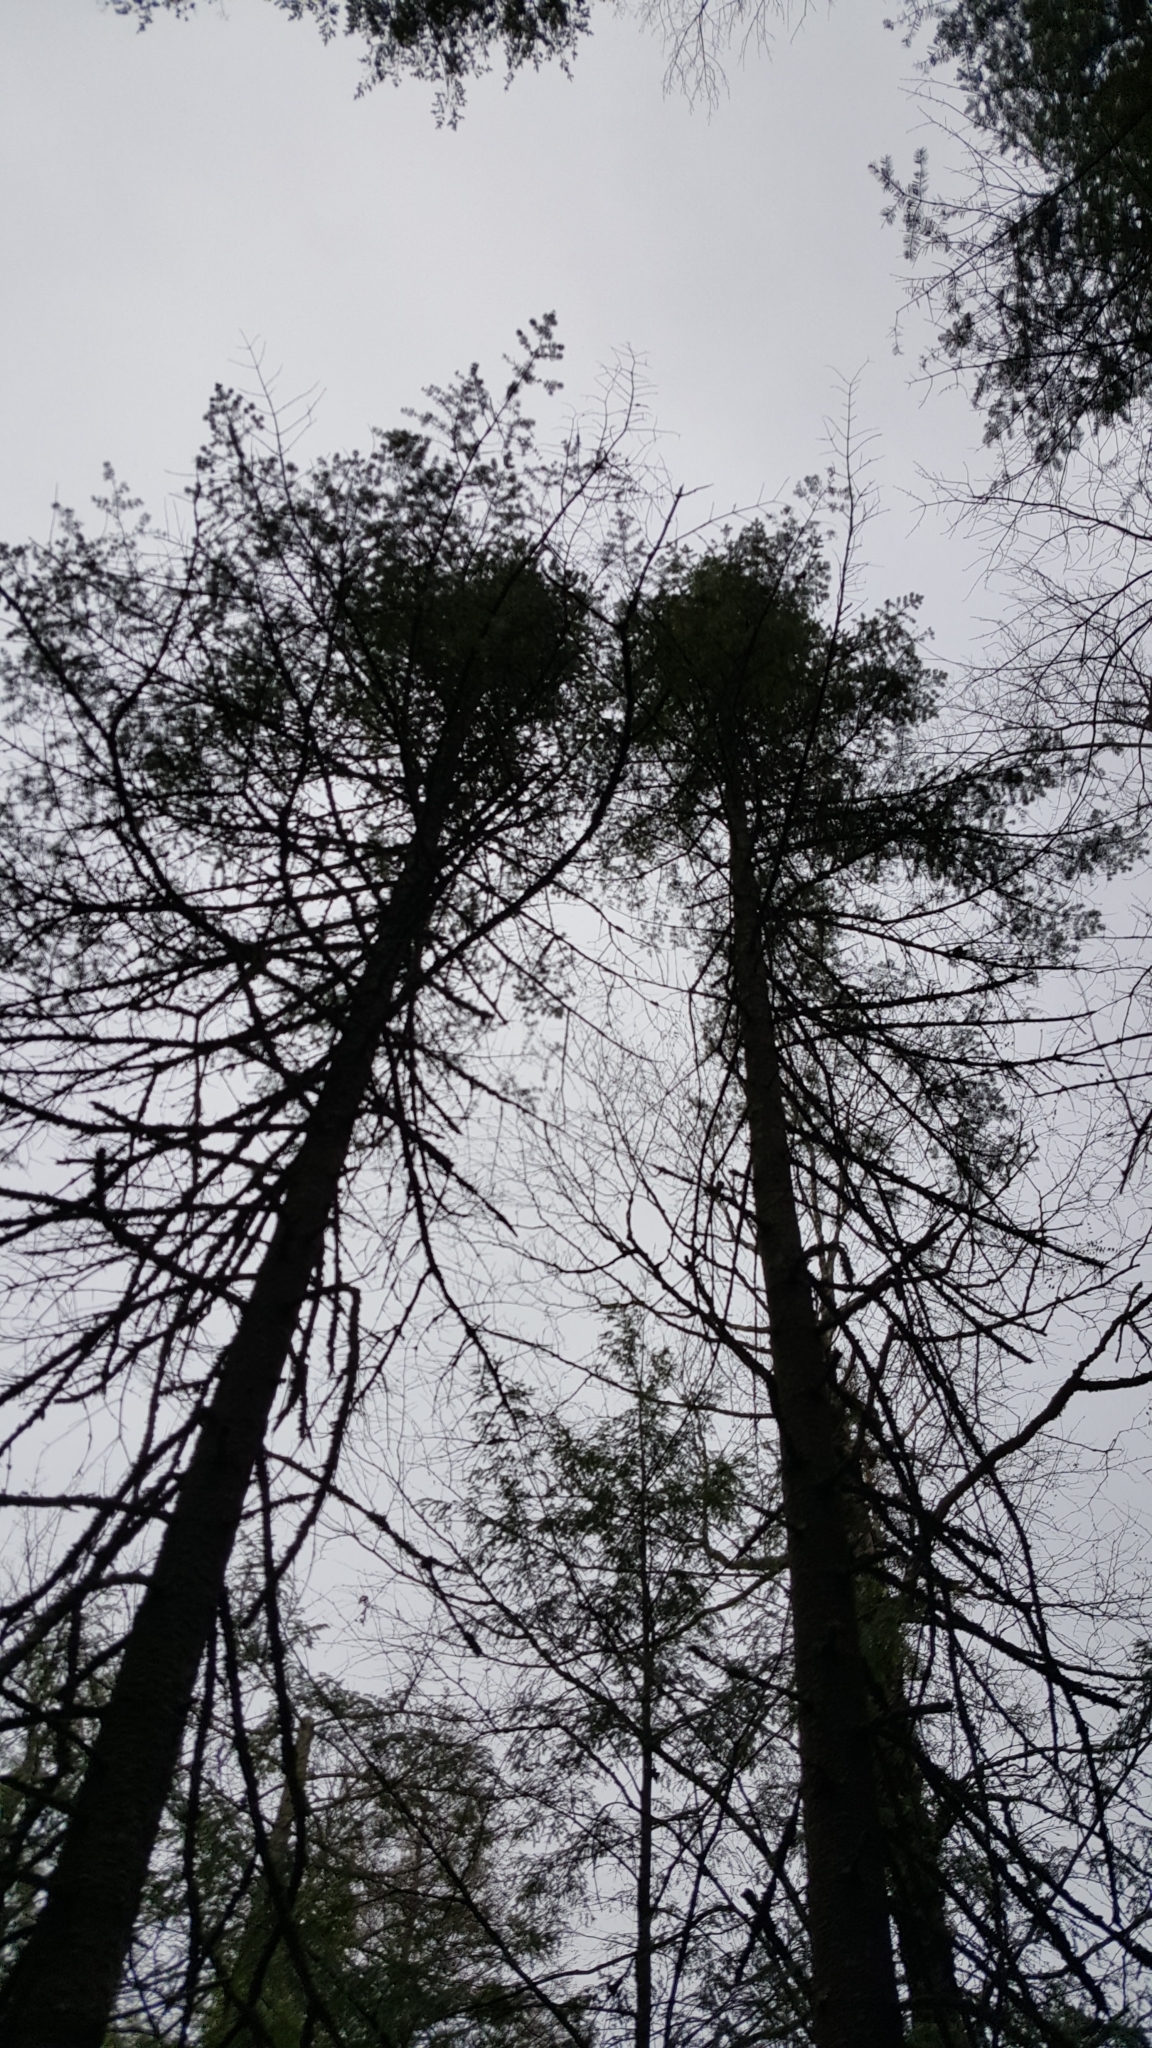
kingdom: Plantae
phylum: Tracheophyta
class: Pinopsida
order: Pinales
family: Pinaceae
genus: Abies
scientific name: Abies balsamea
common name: Balsam fir
